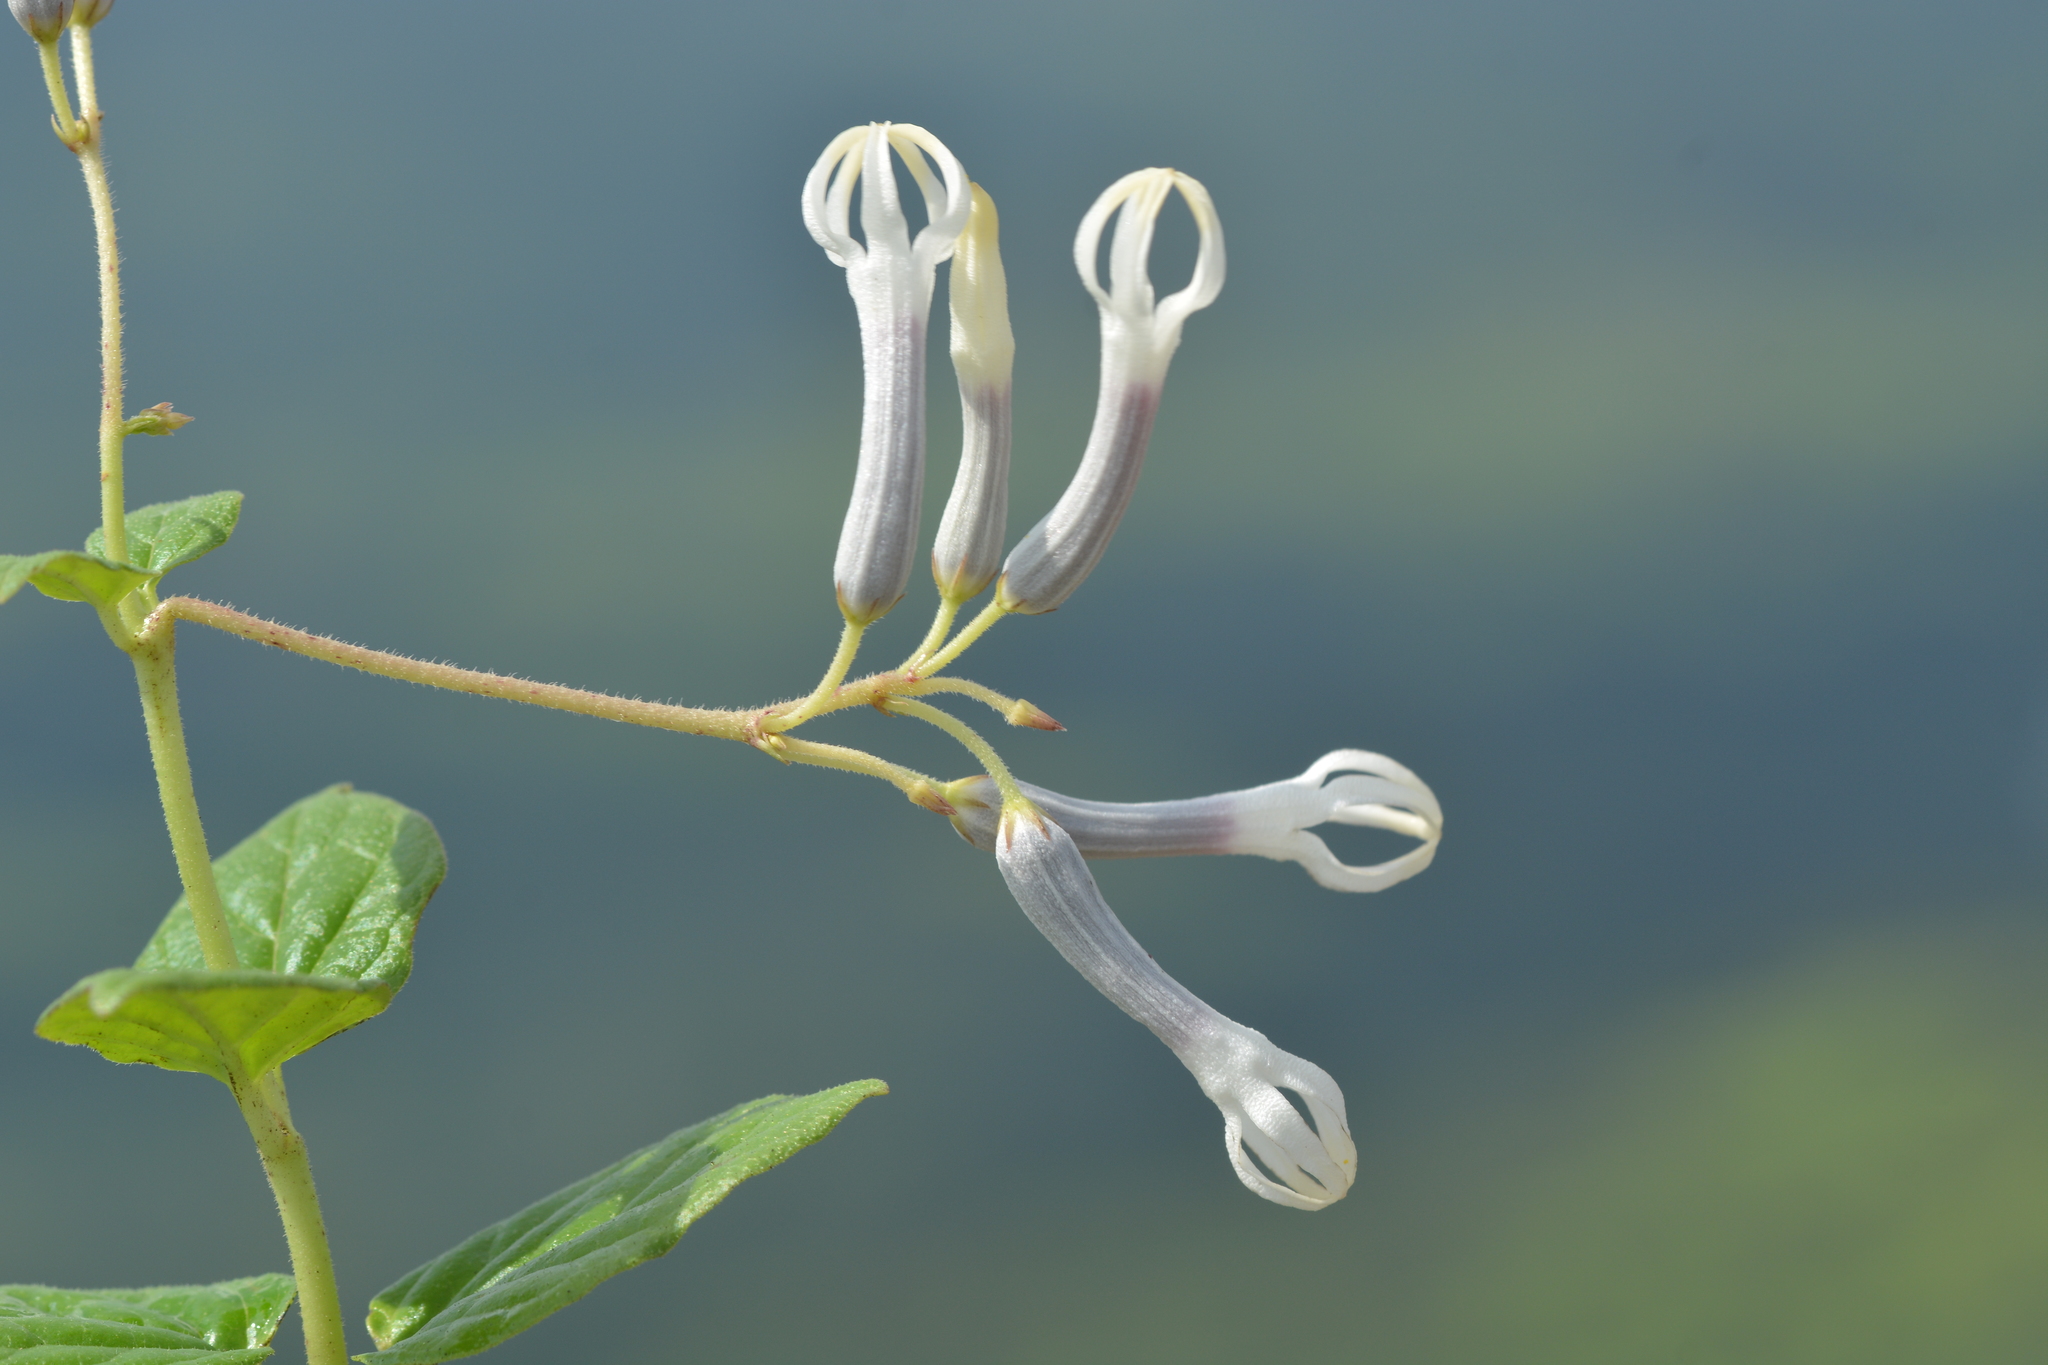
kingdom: Plantae
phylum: Tracheophyta
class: Magnoliopsida
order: Gentianales
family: Apocynaceae
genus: Ceropegia
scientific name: Ceropegia lawii
